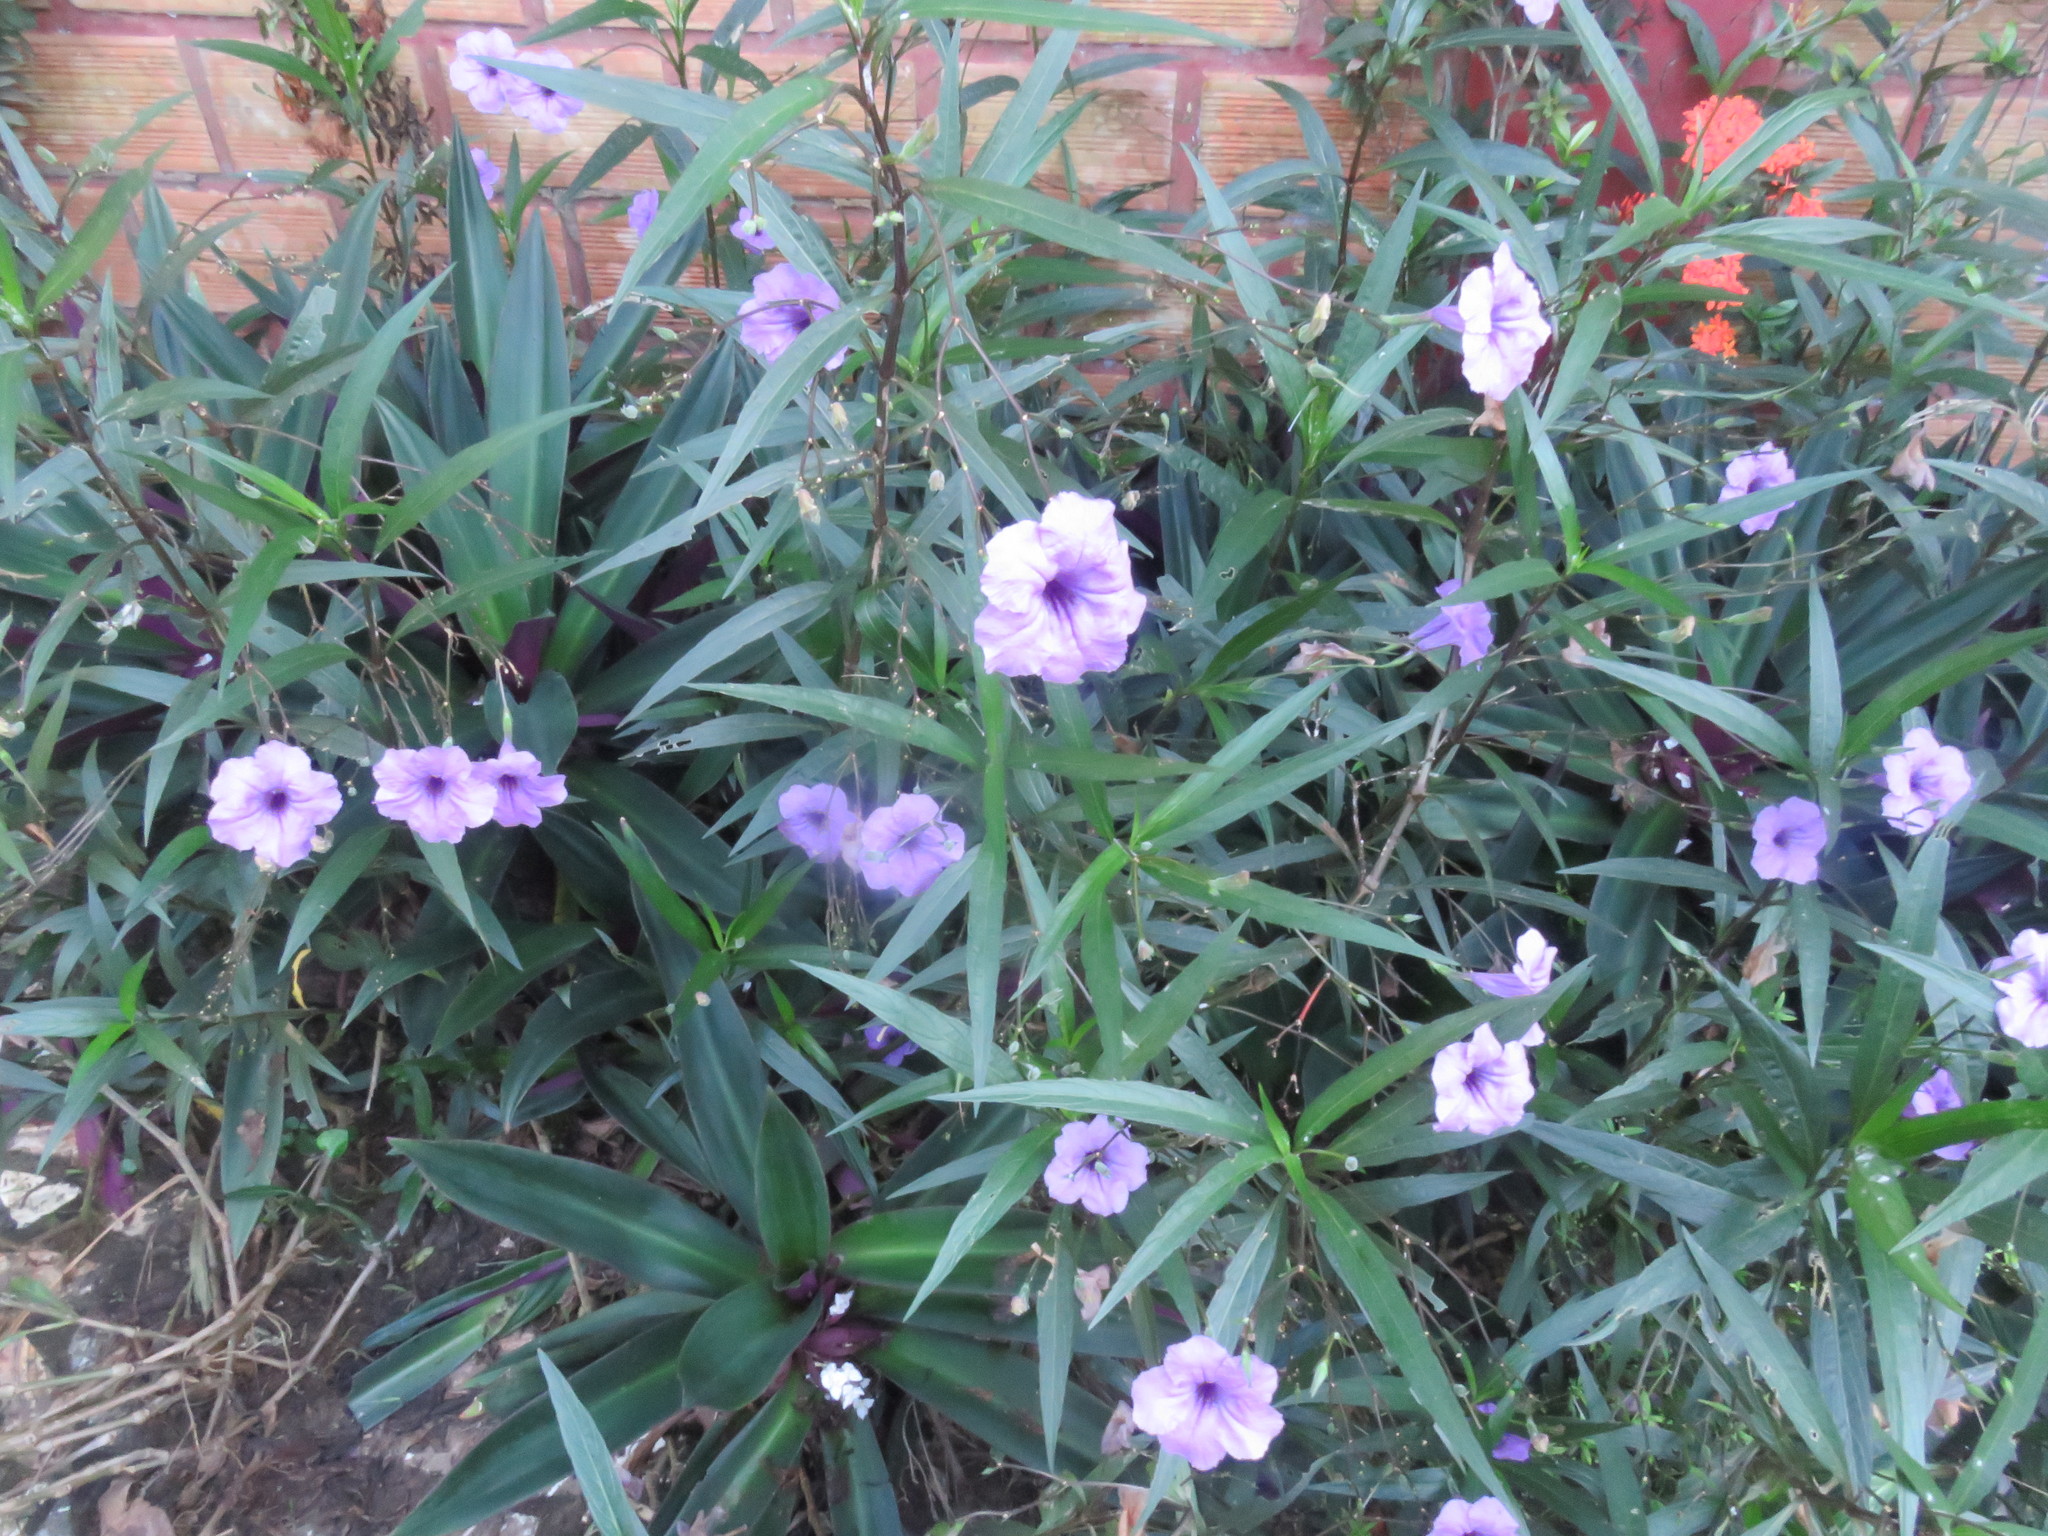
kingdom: Plantae
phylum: Tracheophyta
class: Magnoliopsida
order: Lamiales
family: Acanthaceae
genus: Ruellia
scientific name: Ruellia simplex
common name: Softseed wild petunia
